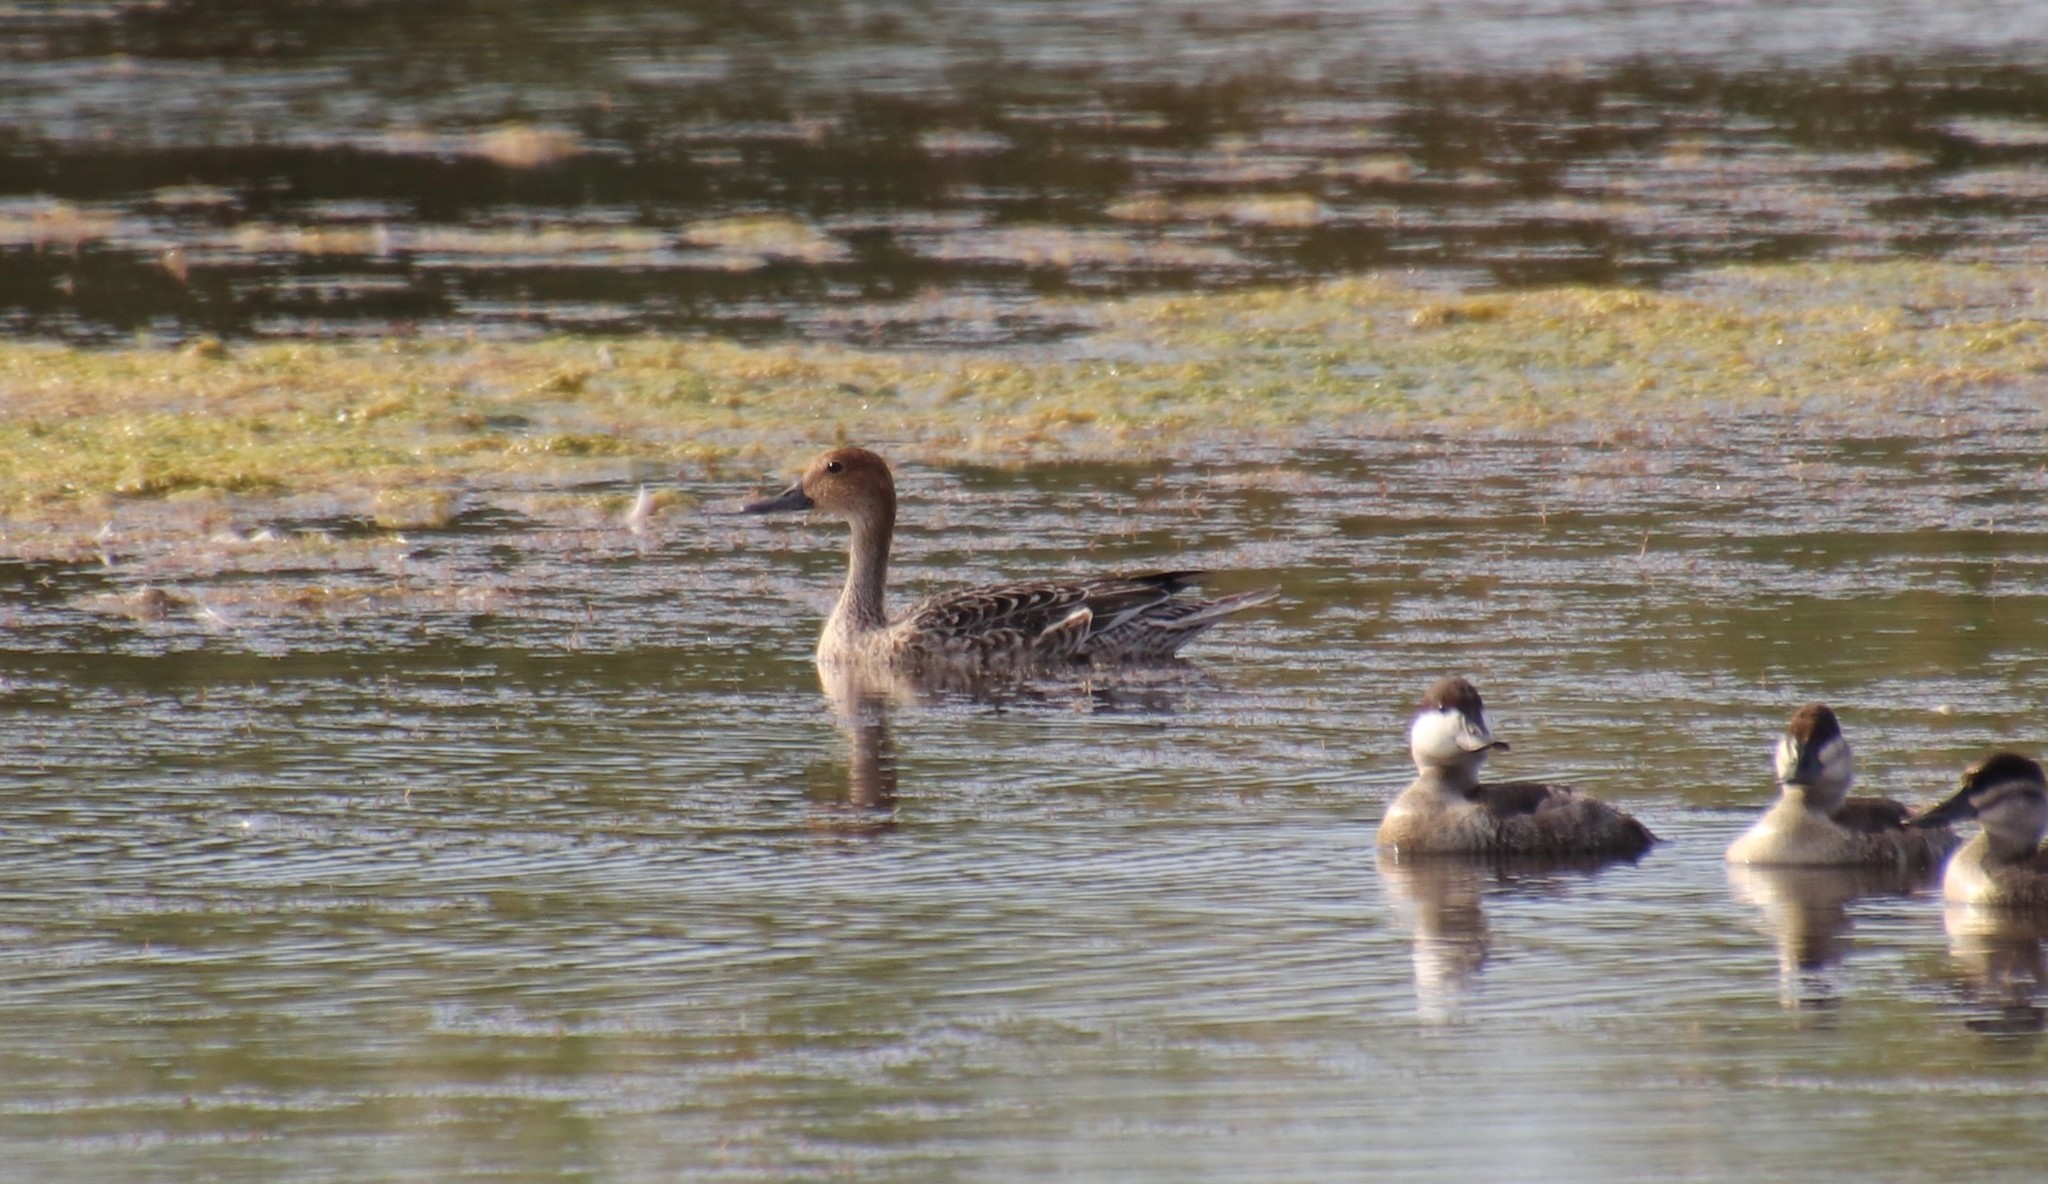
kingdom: Animalia
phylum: Chordata
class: Aves
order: Anseriformes
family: Anatidae
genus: Anas
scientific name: Anas acuta
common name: Northern pintail
